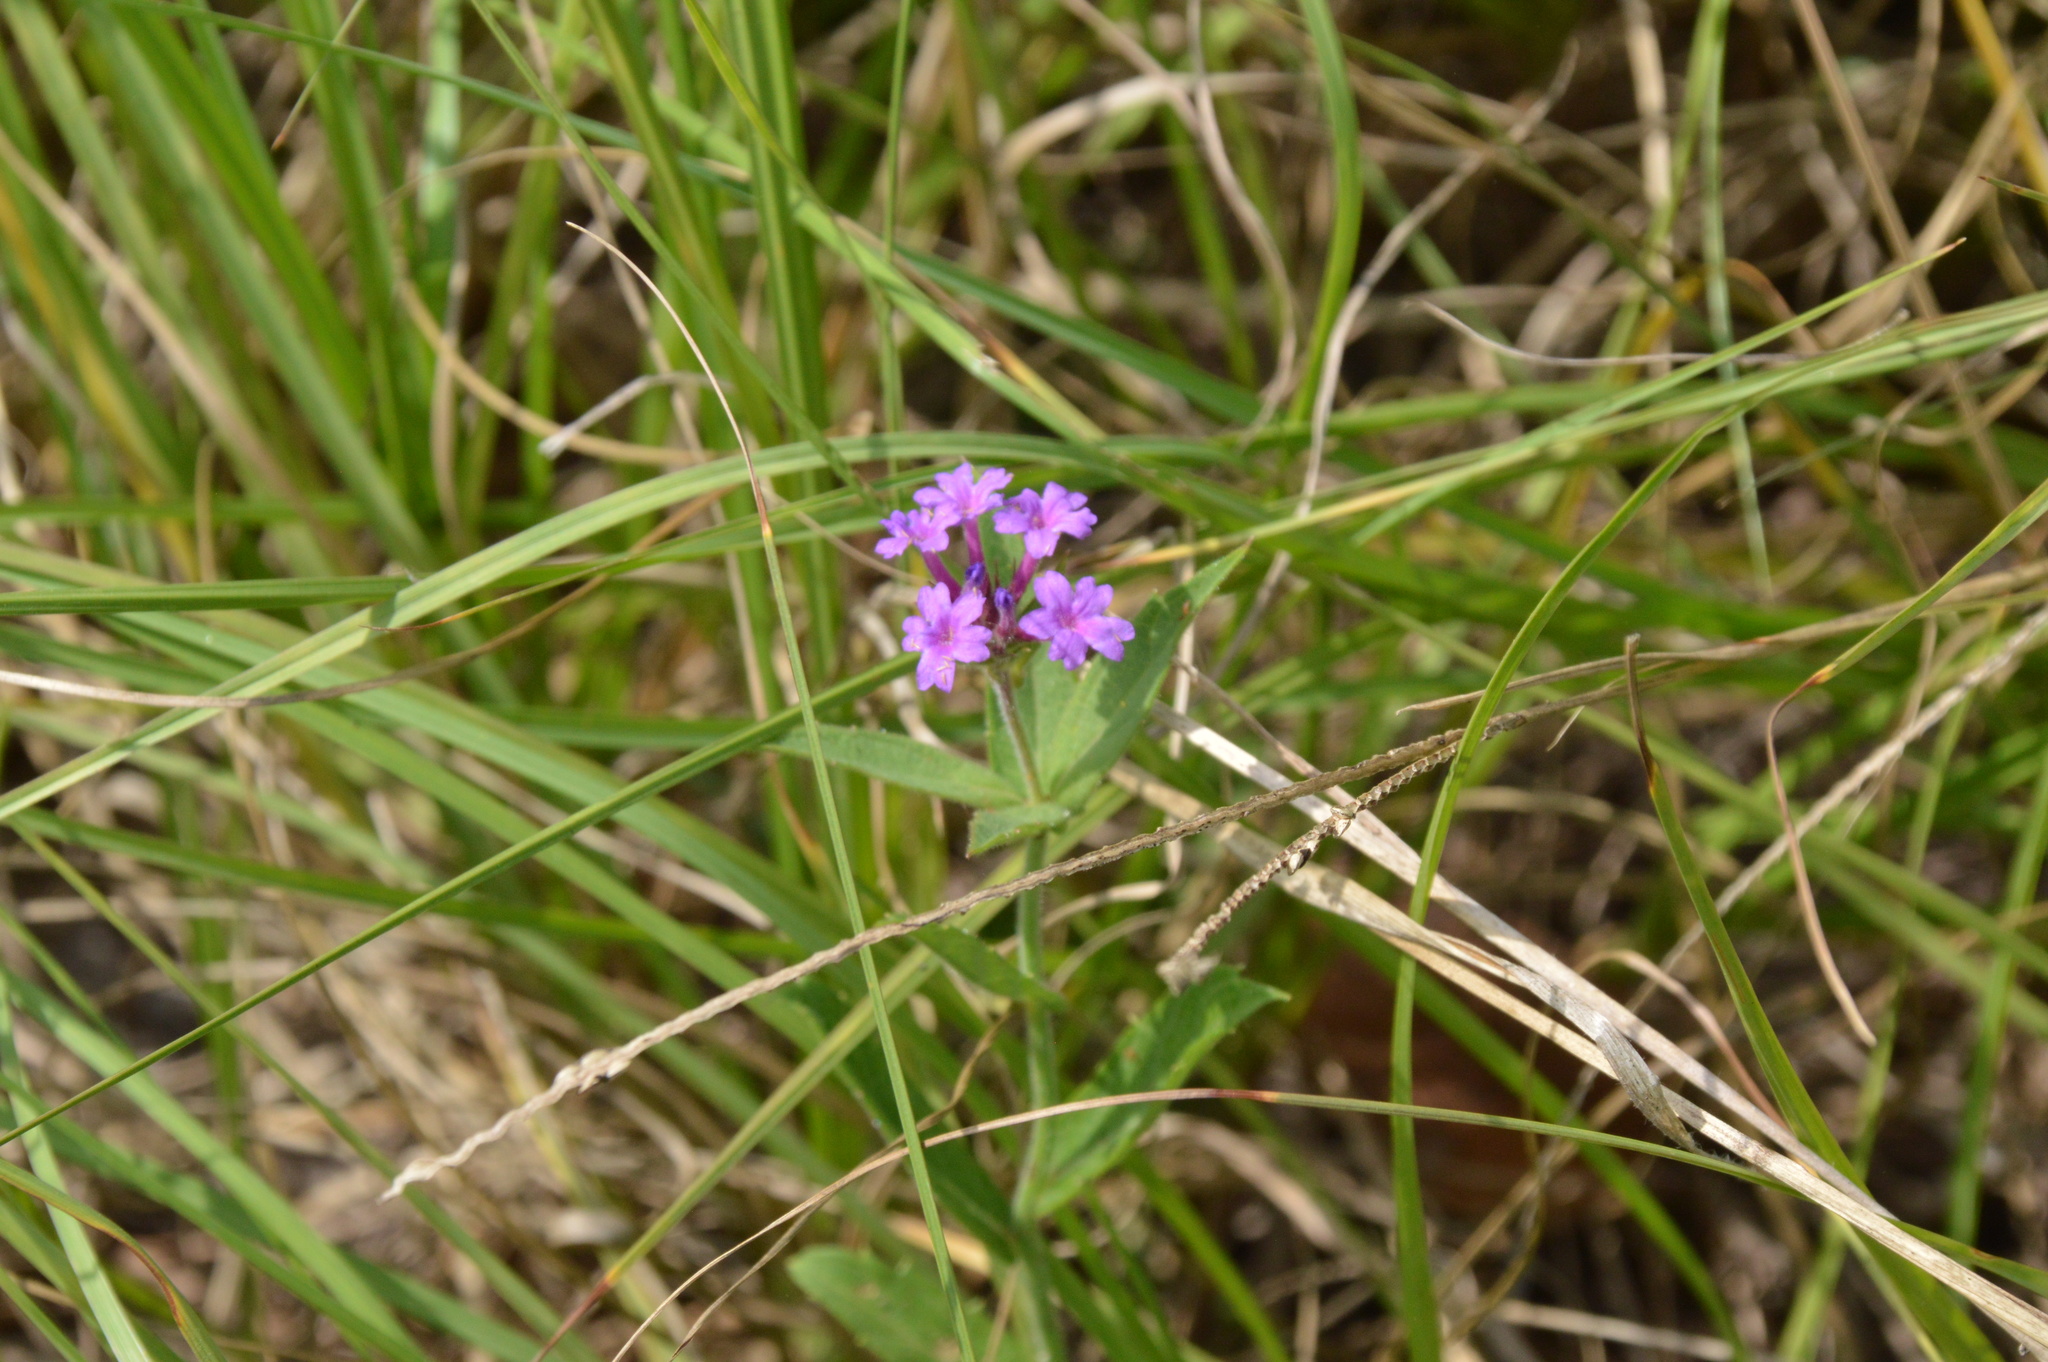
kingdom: Plantae
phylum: Tracheophyta
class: Magnoliopsida
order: Lamiales
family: Verbenaceae
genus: Verbena
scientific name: Verbena rigida
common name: Slender vervain
